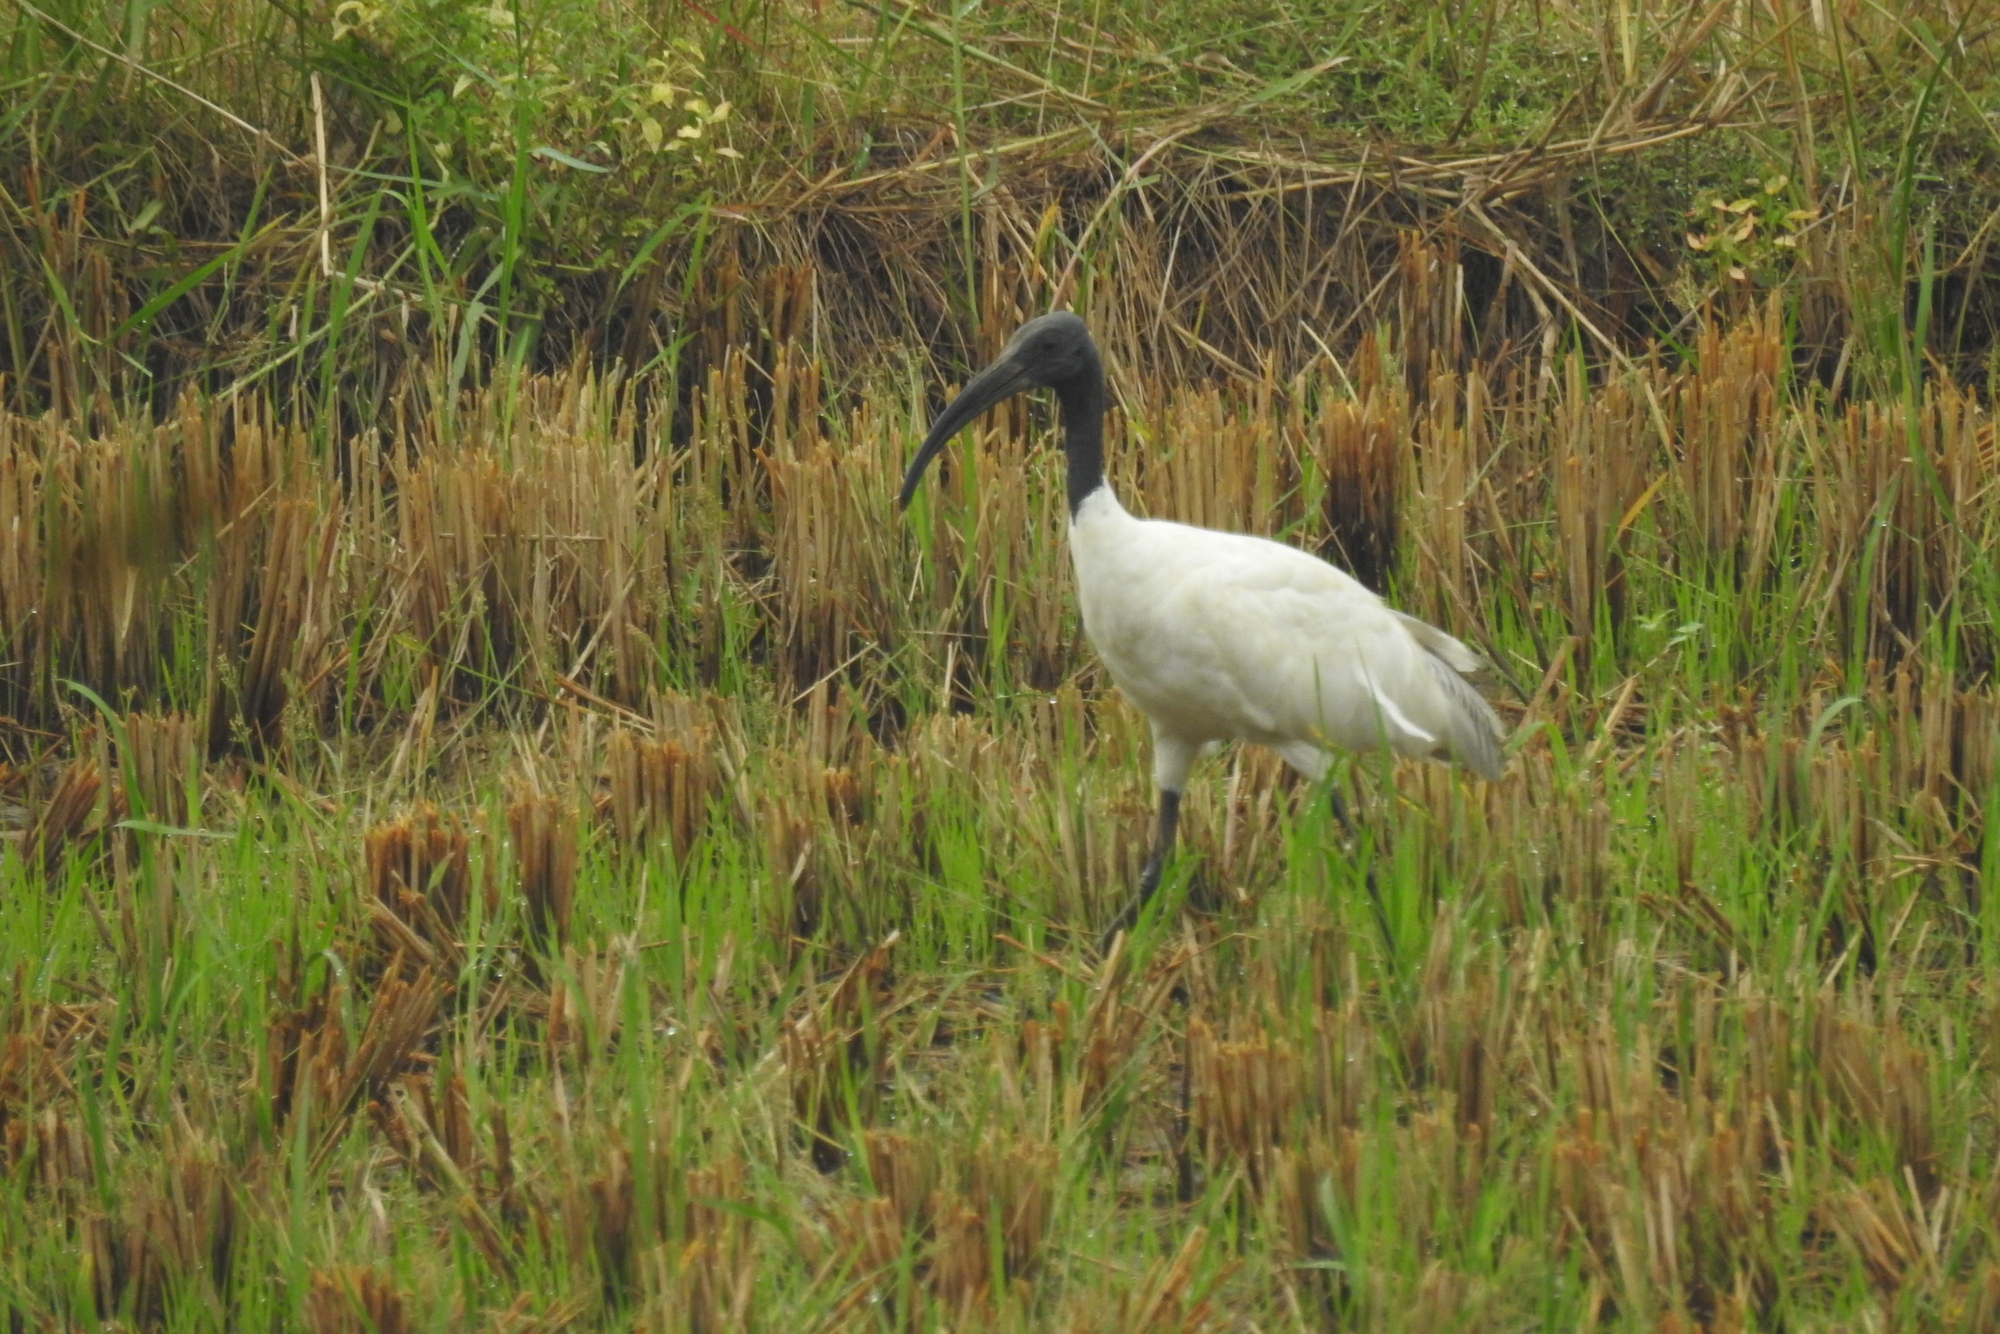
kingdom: Animalia
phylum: Chordata
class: Aves
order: Pelecaniformes
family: Threskiornithidae
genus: Threskiornis
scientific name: Threskiornis melanocephalus
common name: Black-headed ibis
